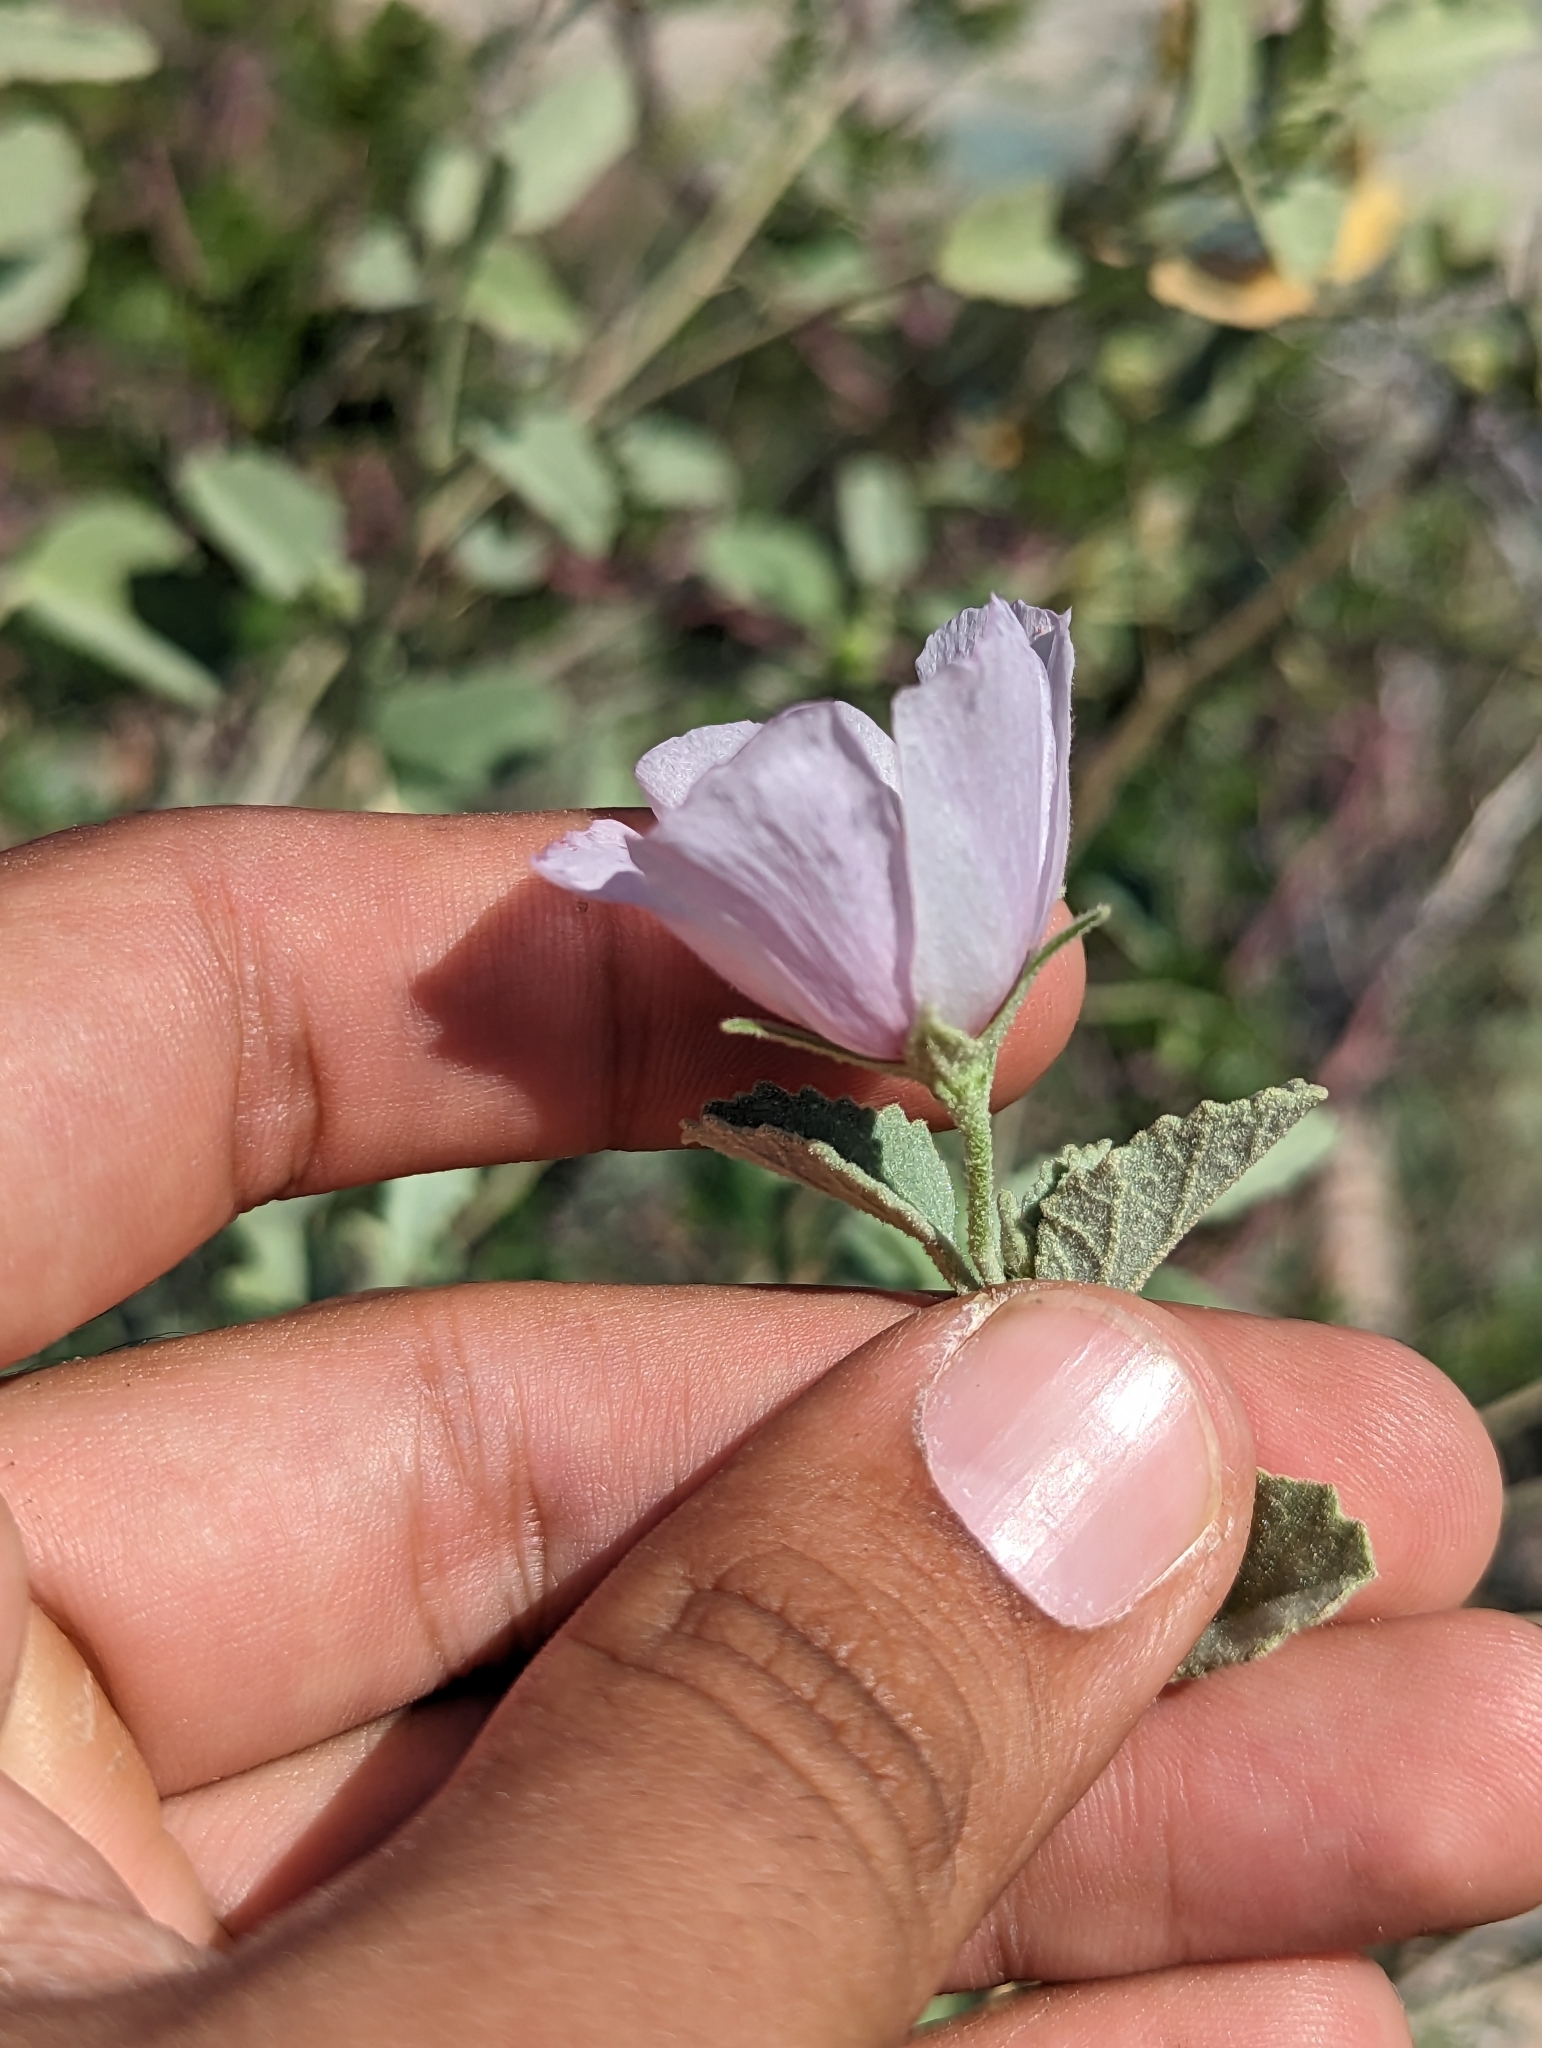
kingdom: Plantae
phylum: Tracheophyta
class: Magnoliopsida
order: Malvales
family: Malvaceae
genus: Hibiscus
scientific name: Hibiscus denudatus
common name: Paleface
